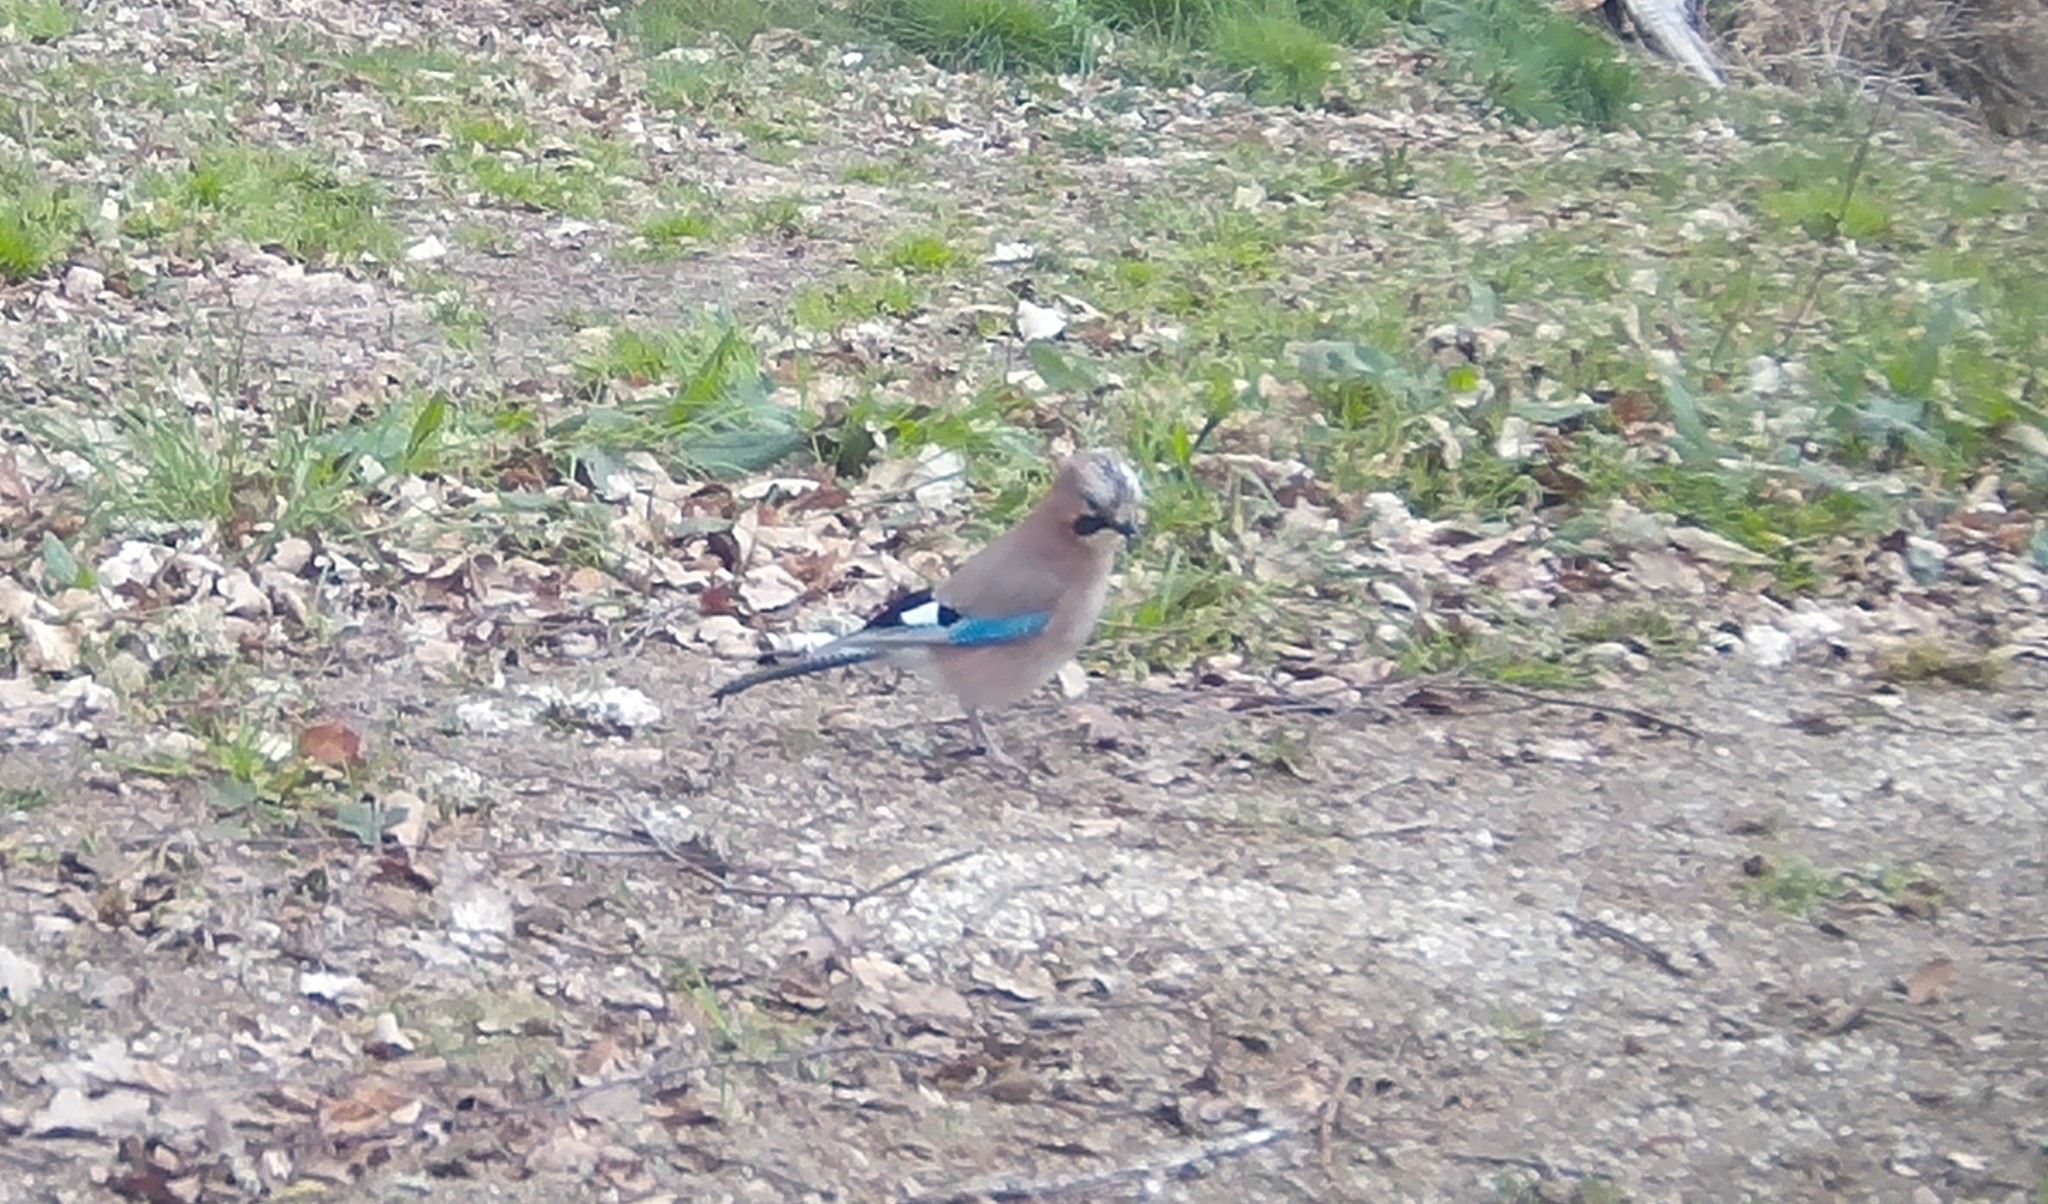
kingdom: Animalia
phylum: Chordata
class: Aves
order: Passeriformes
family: Corvidae
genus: Garrulus
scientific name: Garrulus glandarius
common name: Eurasian jay
